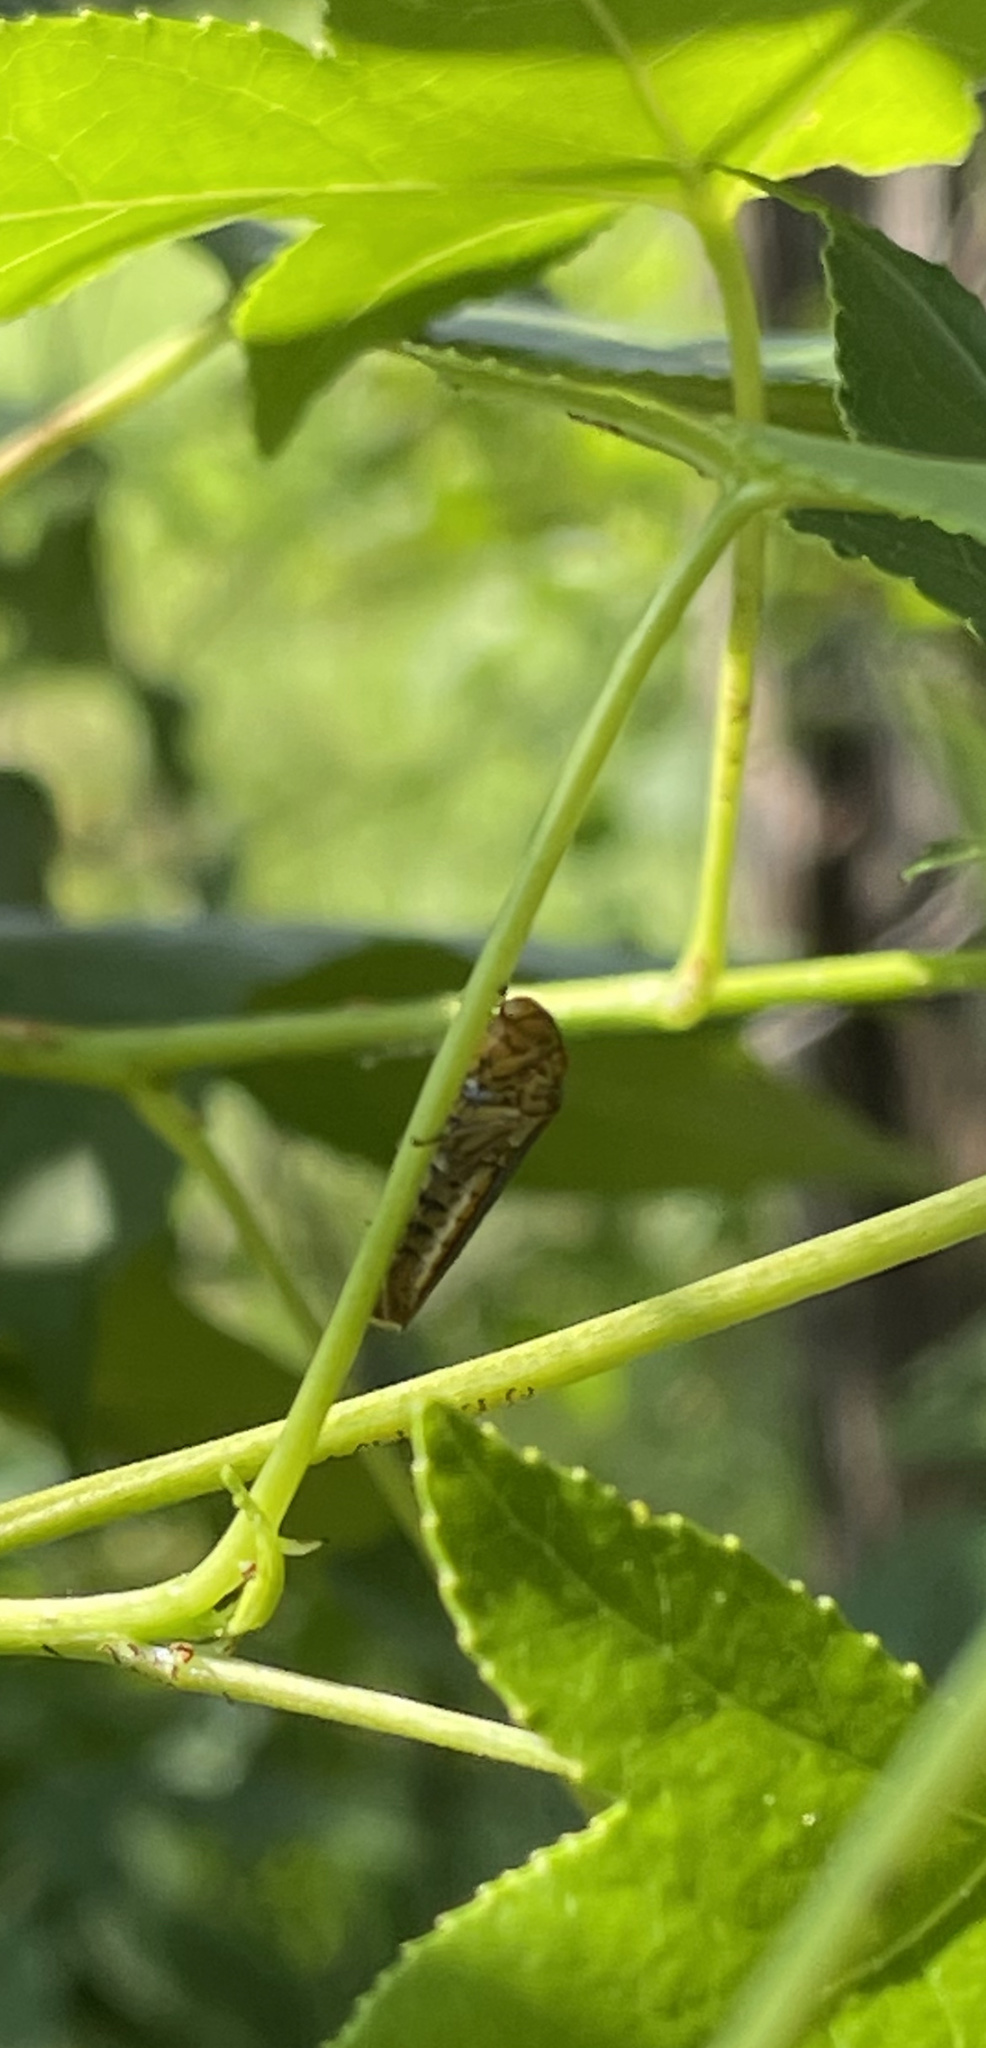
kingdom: Animalia
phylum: Arthropoda
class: Insecta
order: Hemiptera
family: Cicadellidae
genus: Oncometopia
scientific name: Oncometopia orbona
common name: Broad-headed sharpshooter
